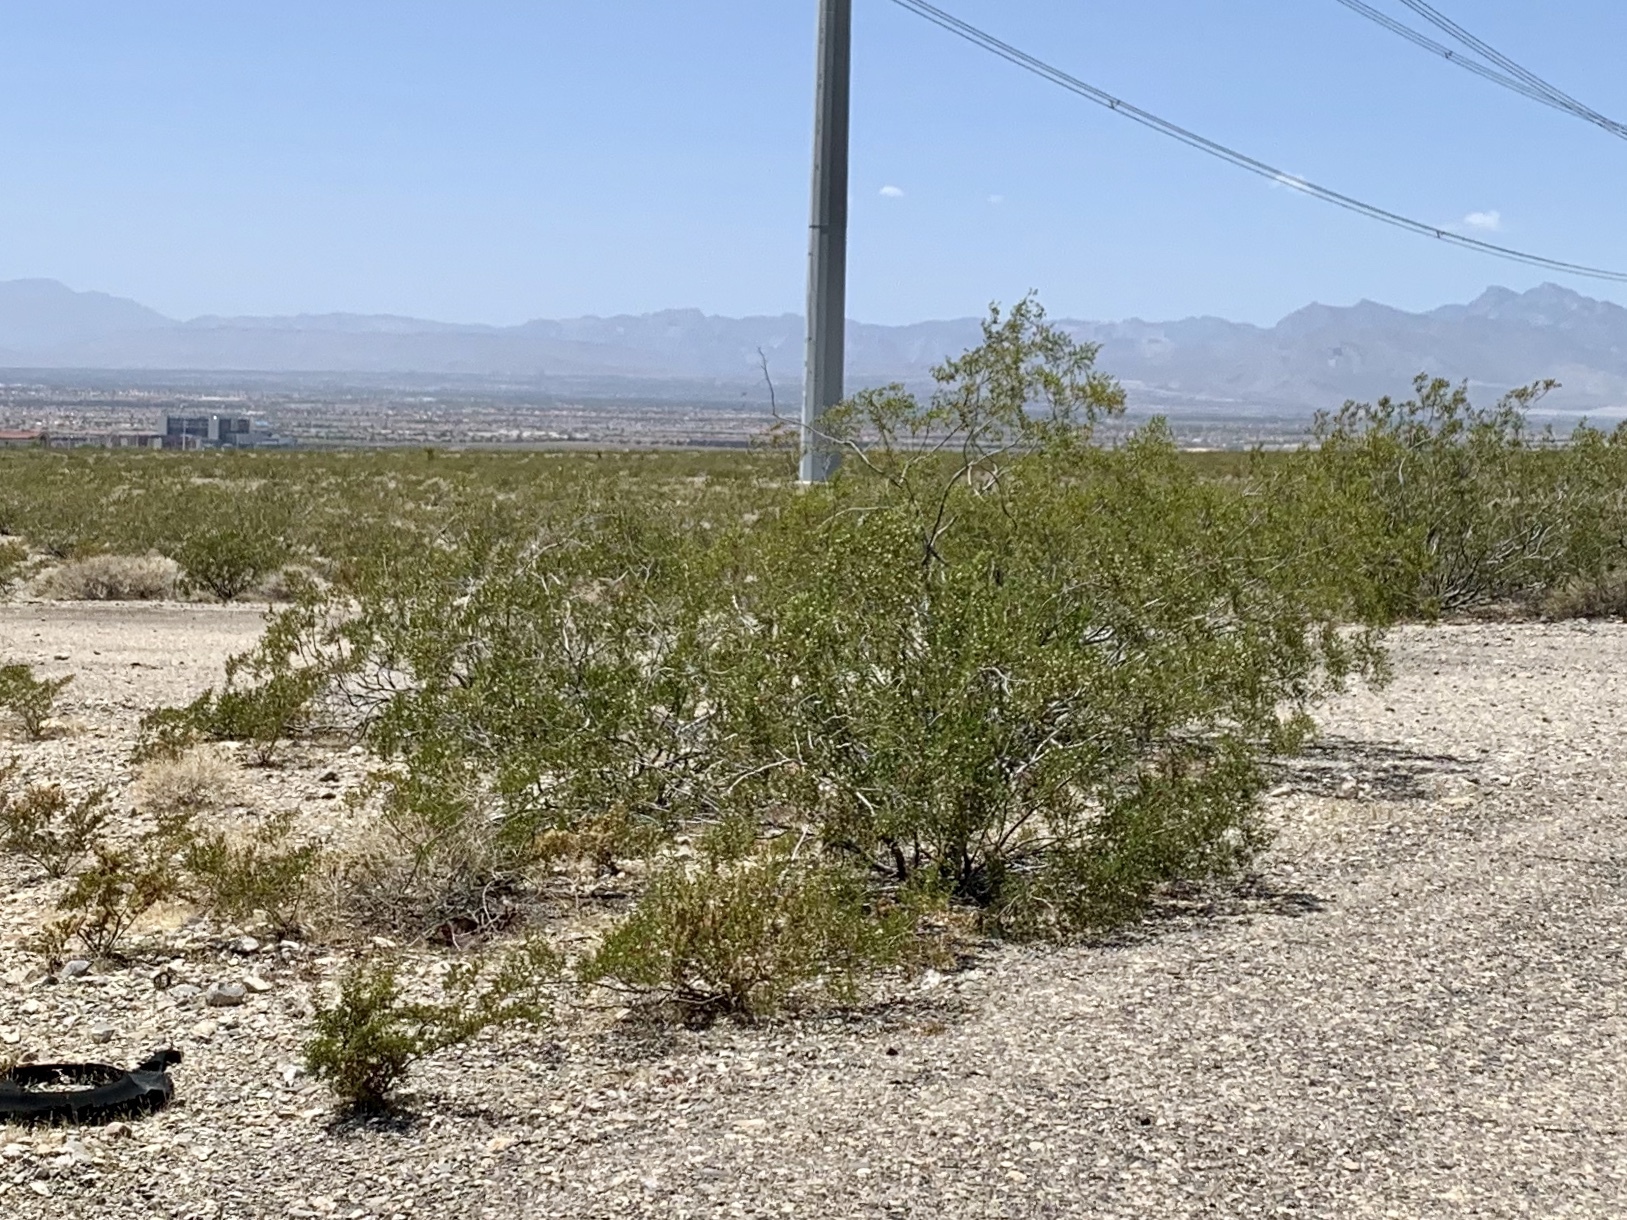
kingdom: Plantae
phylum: Tracheophyta
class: Magnoliopsida
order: Zygophyllales
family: Zygophyllaceae
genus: Larrea
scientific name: Larrea tridentata
